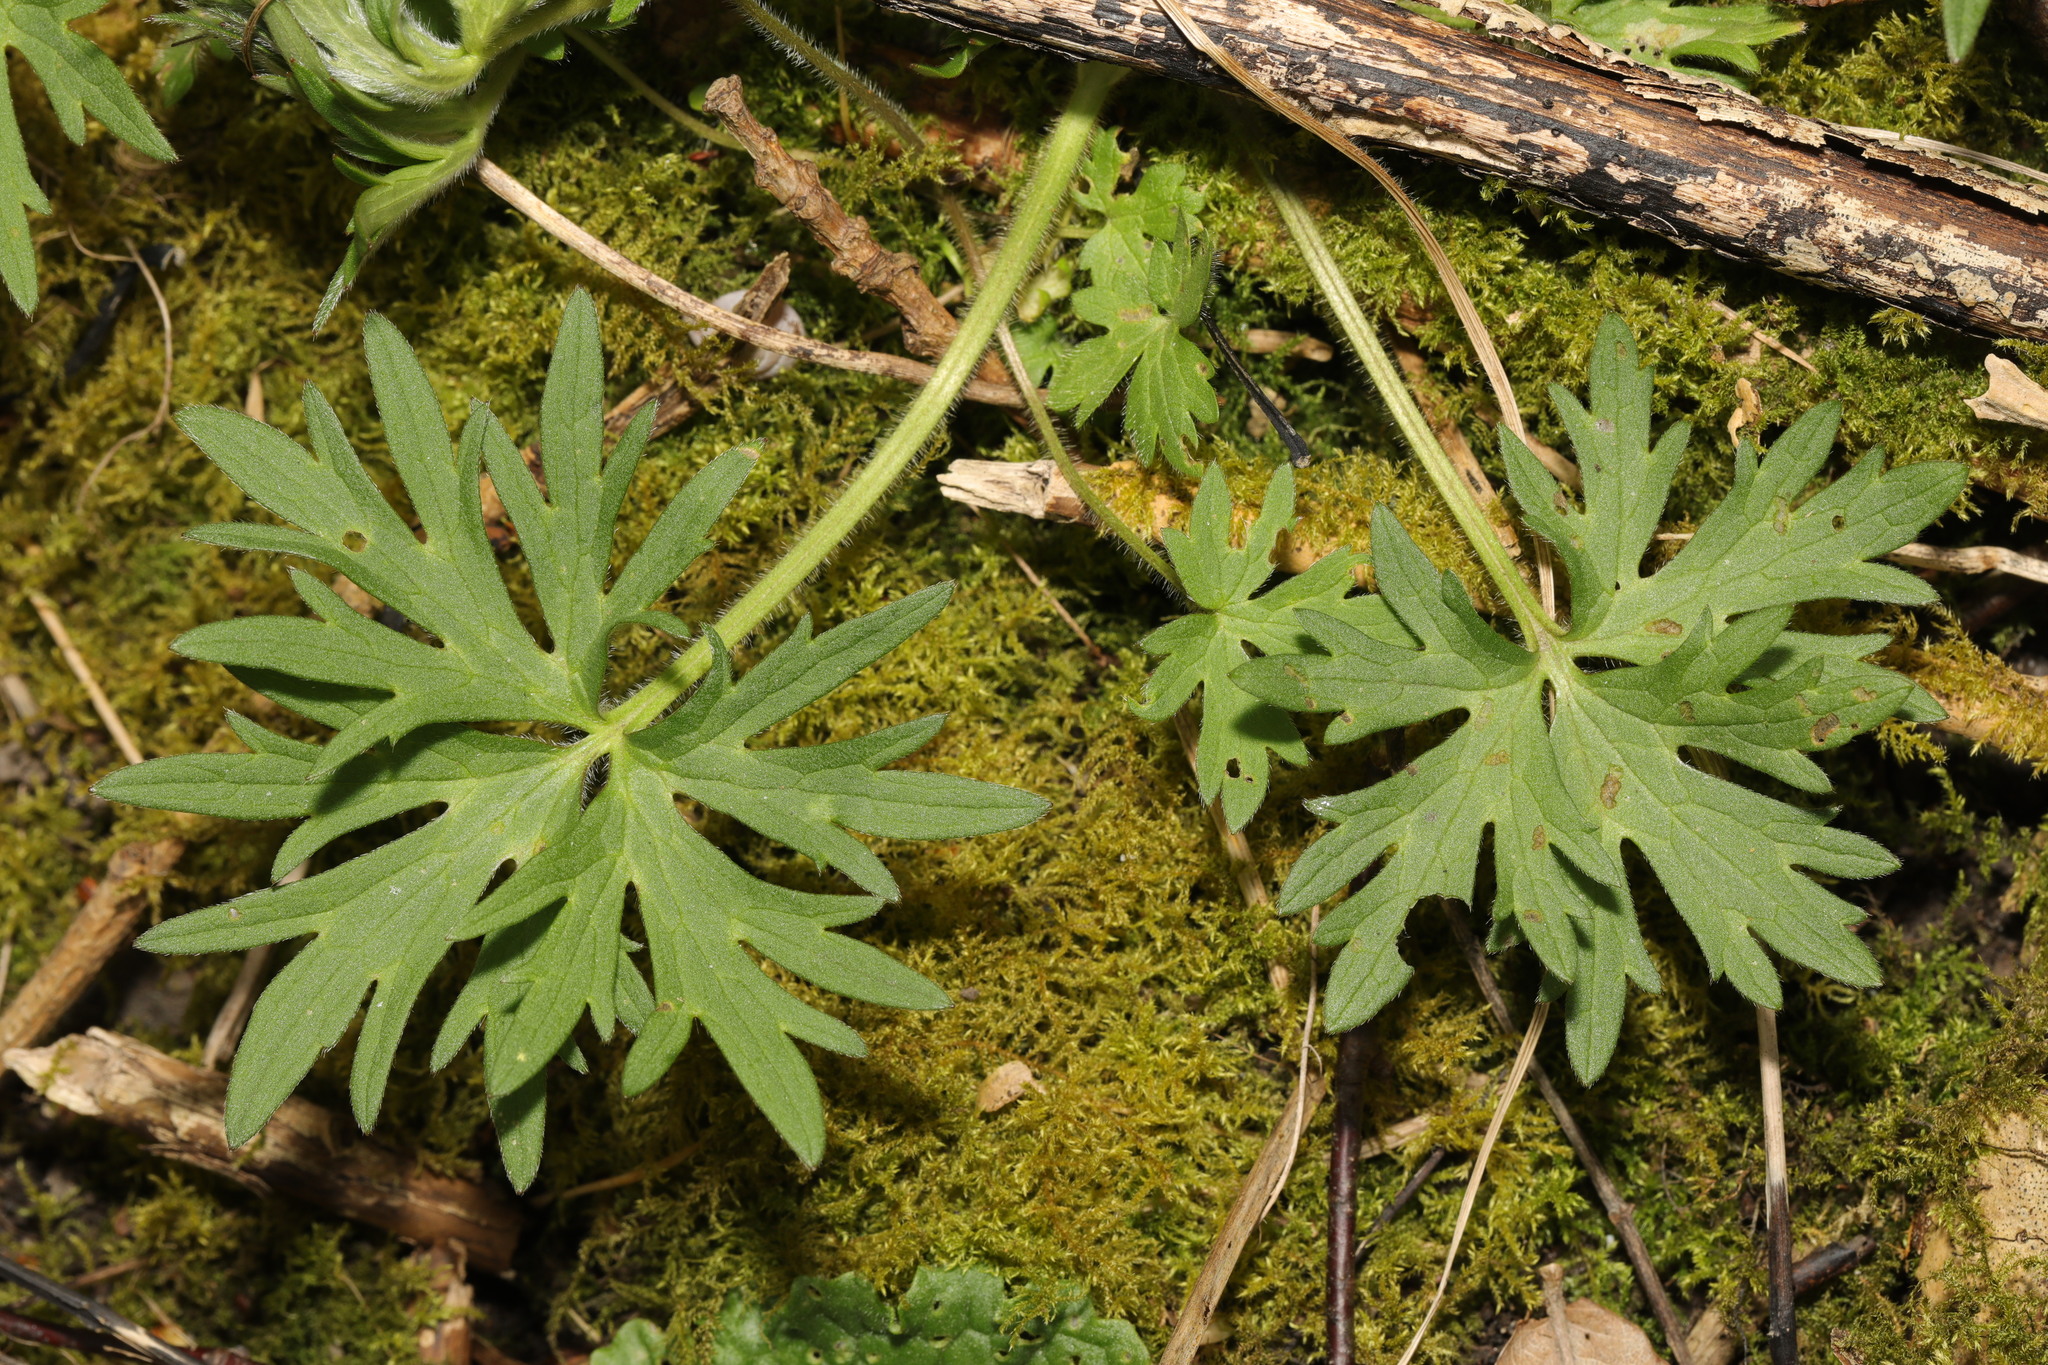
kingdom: Plantae
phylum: Tracheophyta
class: Magnoliopsida
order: Ranunculales
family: Ranunculaceae
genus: Ranunculus
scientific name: Ranunculus acris
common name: Meadow buttercup
